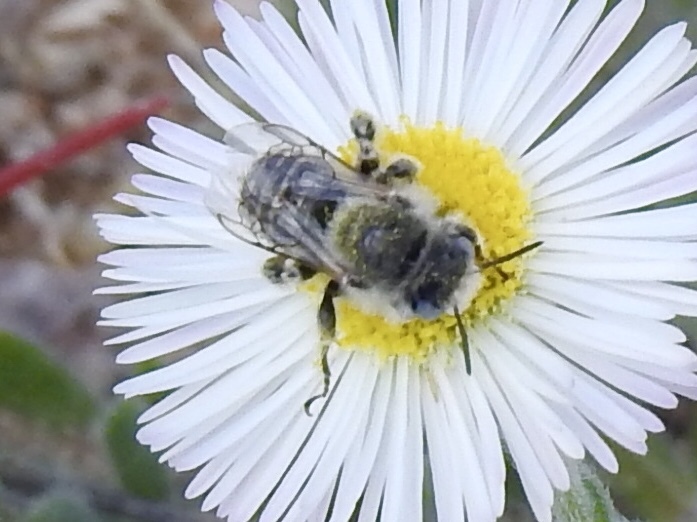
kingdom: Animalia
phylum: Arthropoda
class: Insecta
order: Hymenoptera
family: Apidae
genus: Diadasia
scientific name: Diadasia
